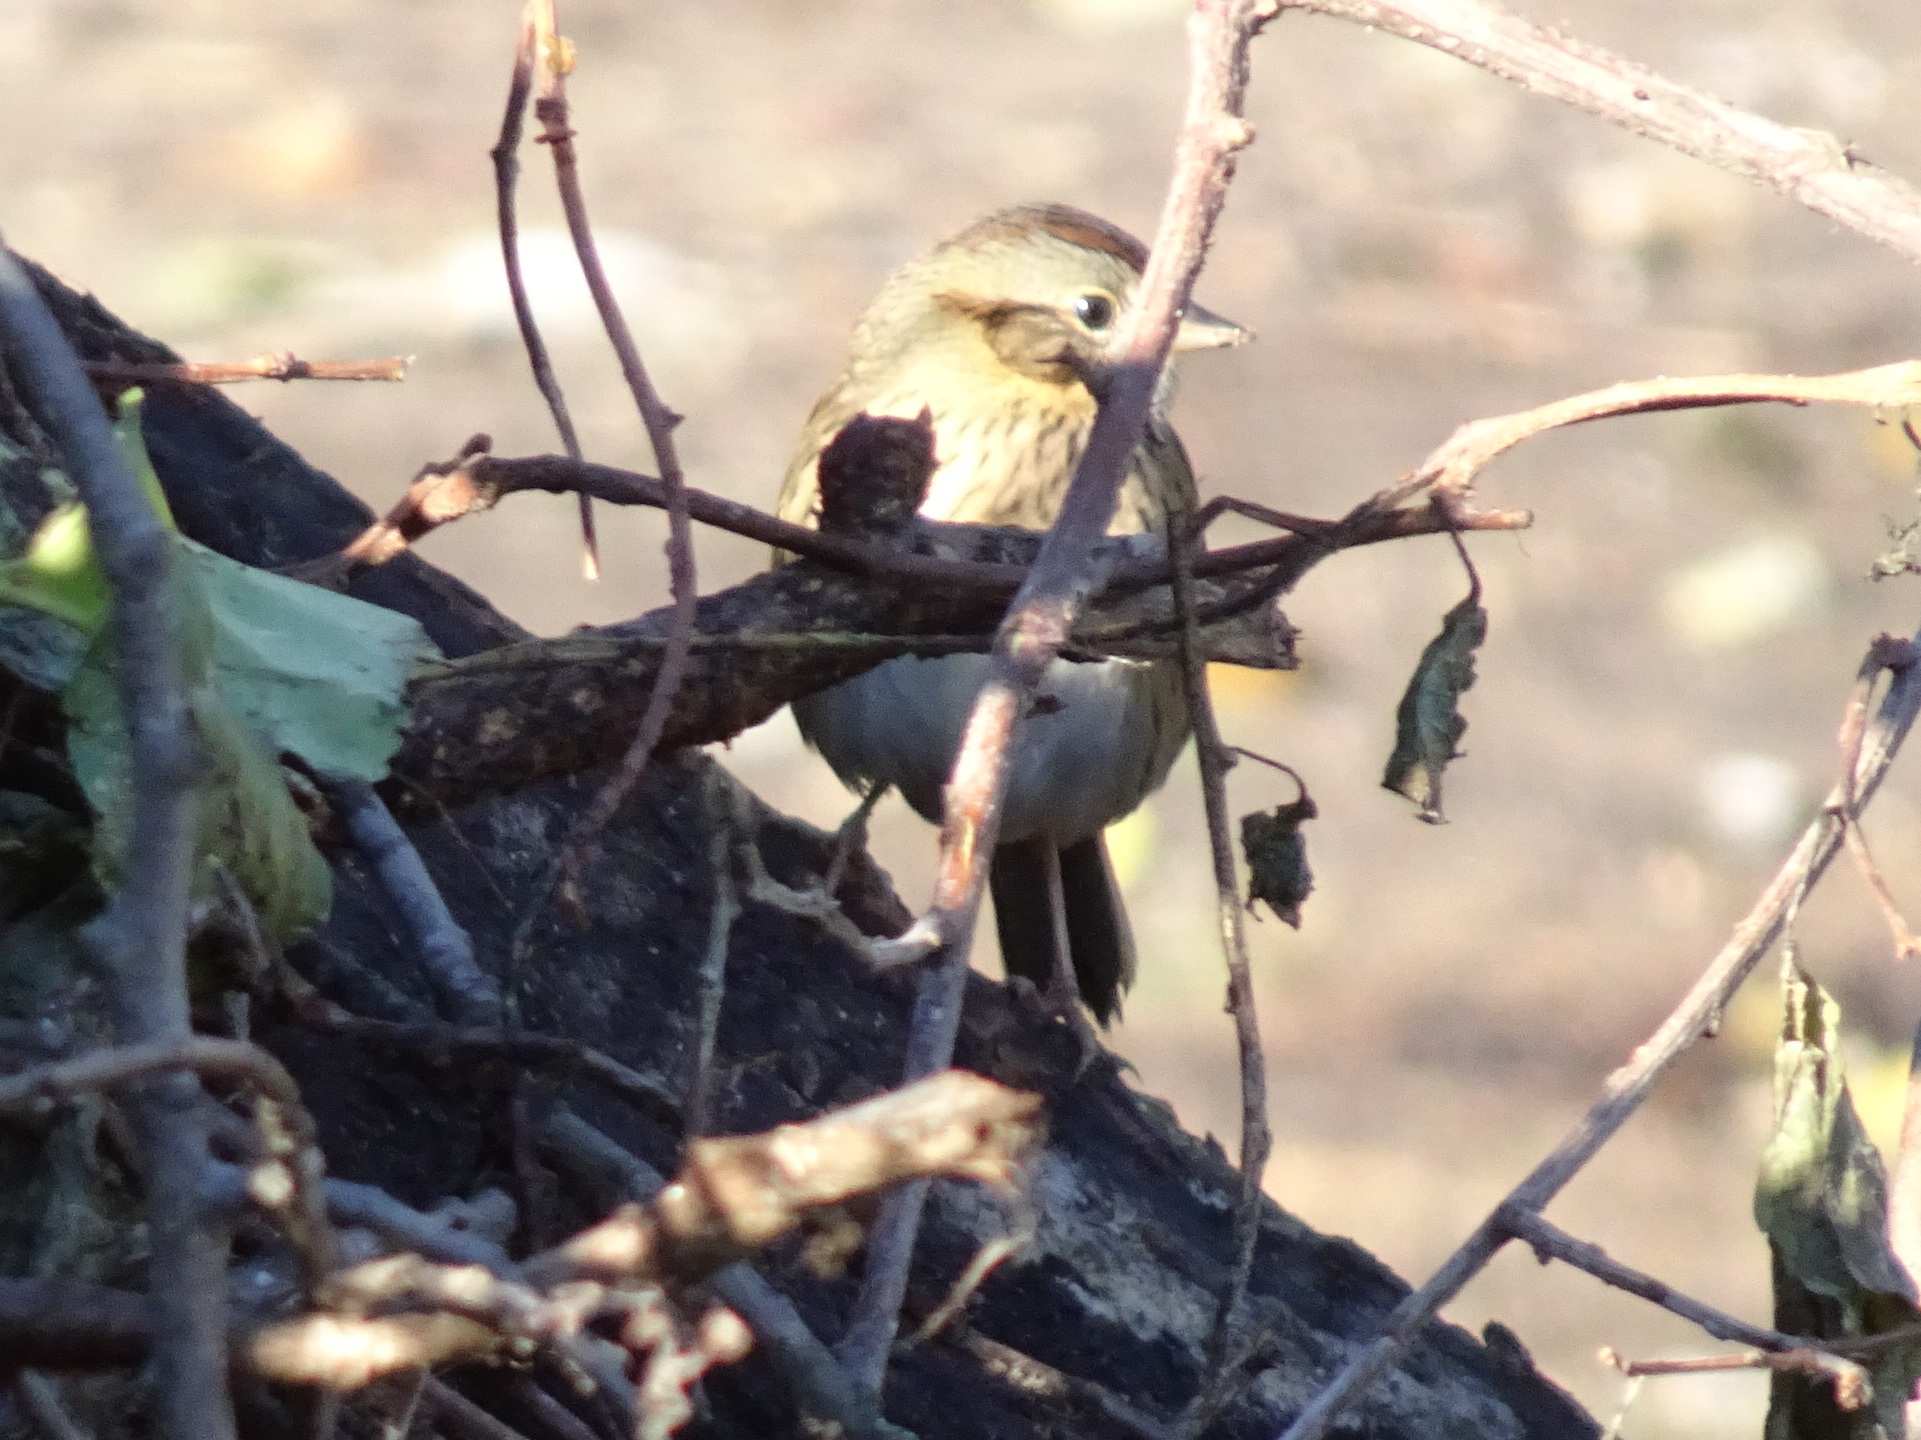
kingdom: Animalia
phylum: Chordata
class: Aves
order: Passeriformes
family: Passerellidae
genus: Melospiza
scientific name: Melospiza lincolnii
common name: Lincoln's sparrow
